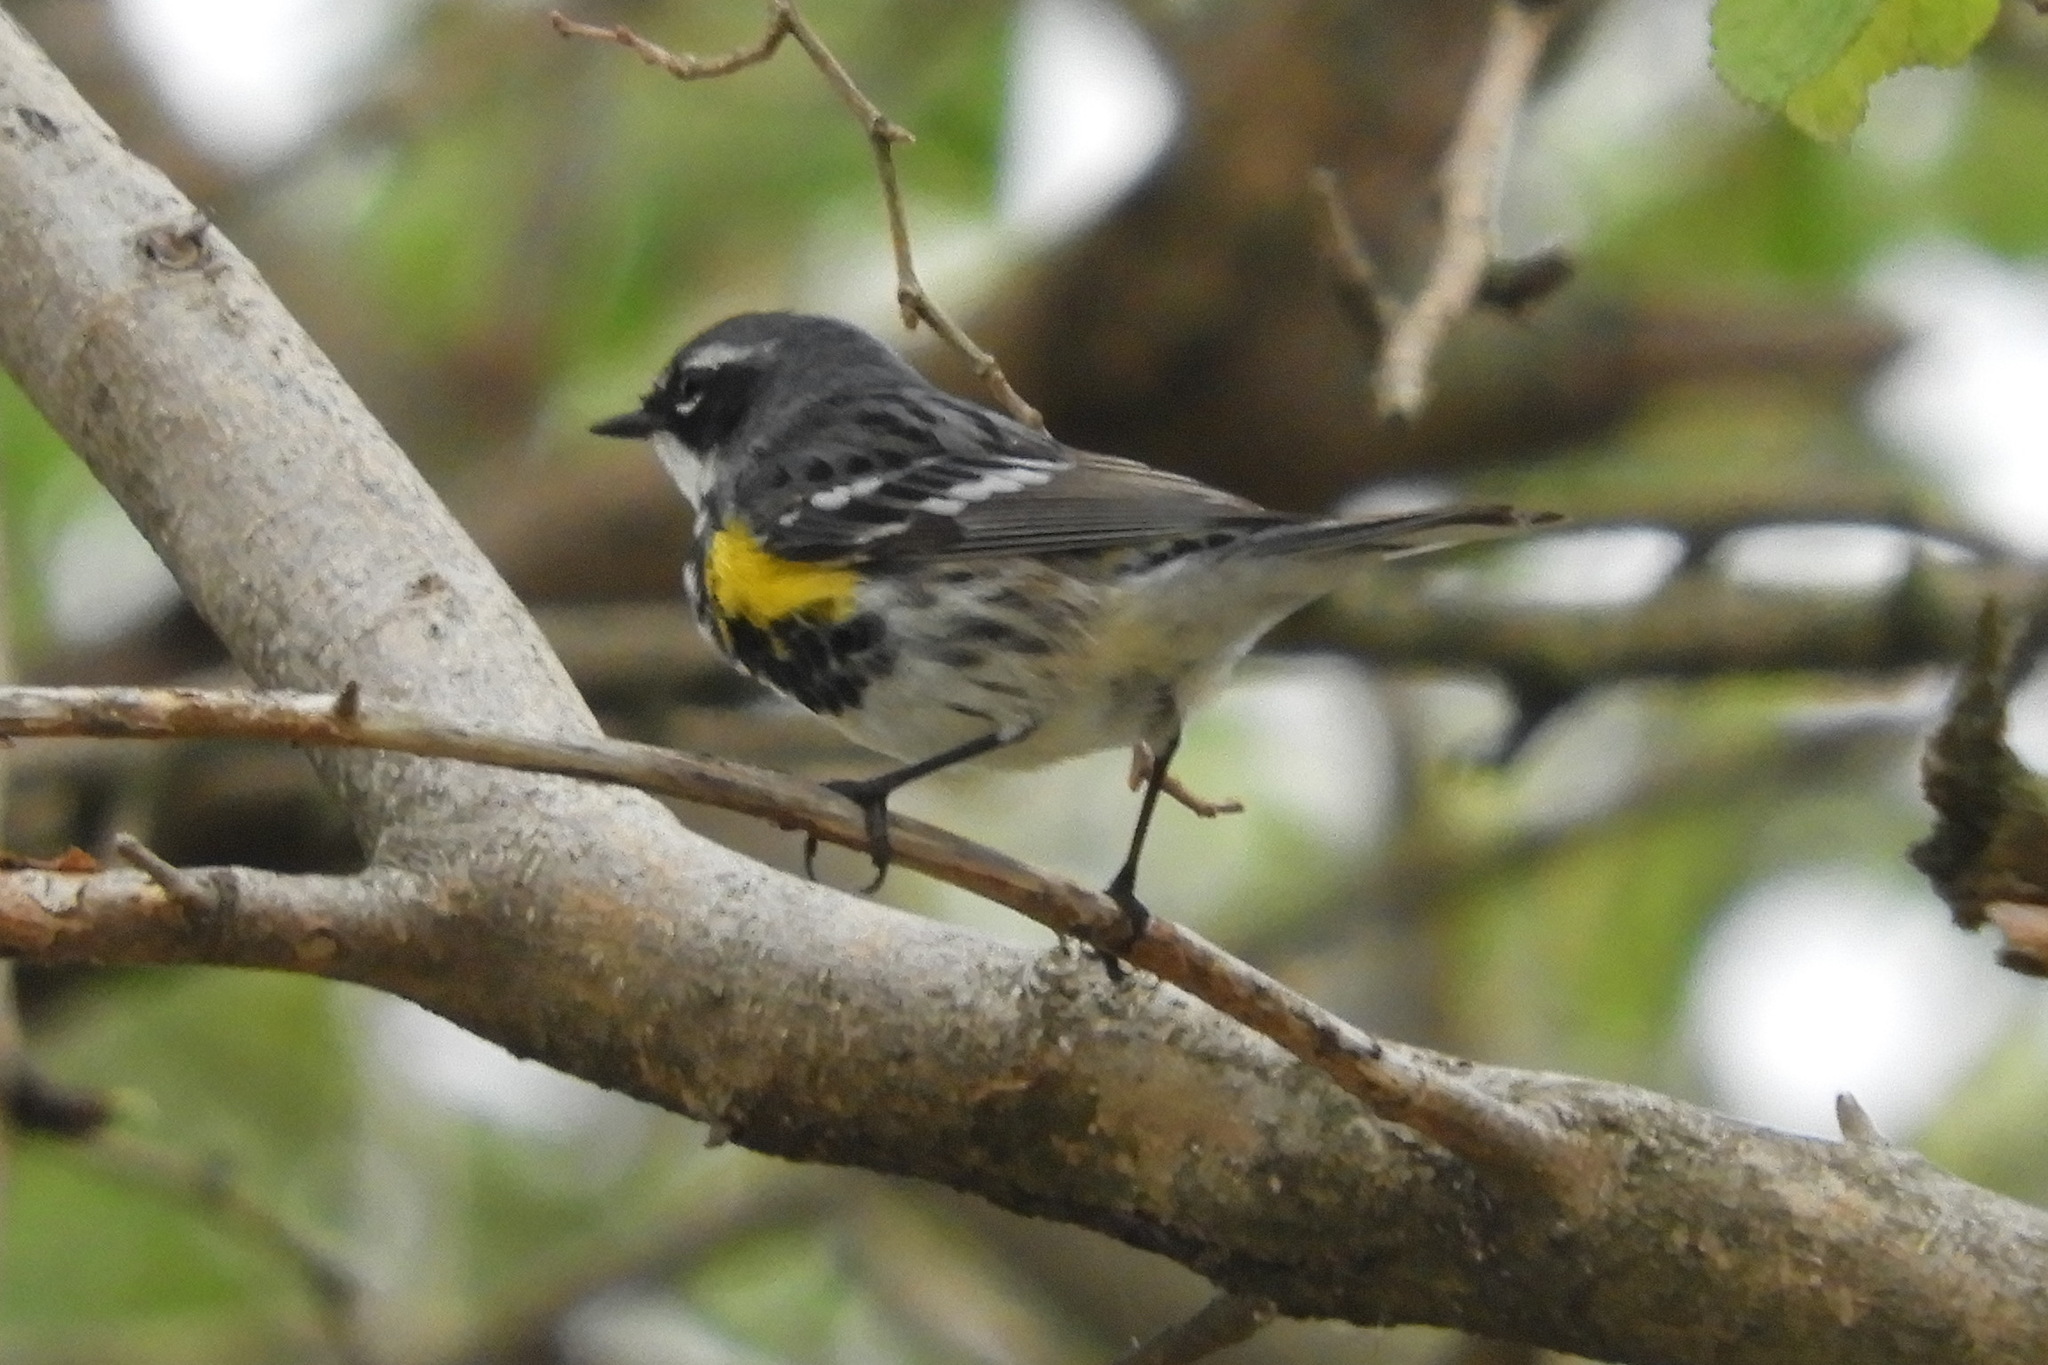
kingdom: Animalia
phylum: Chordata
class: Aves
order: Passeriformes
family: Parulidae
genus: Setophaga
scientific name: Setophaga coronata
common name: Myrtle warbler
